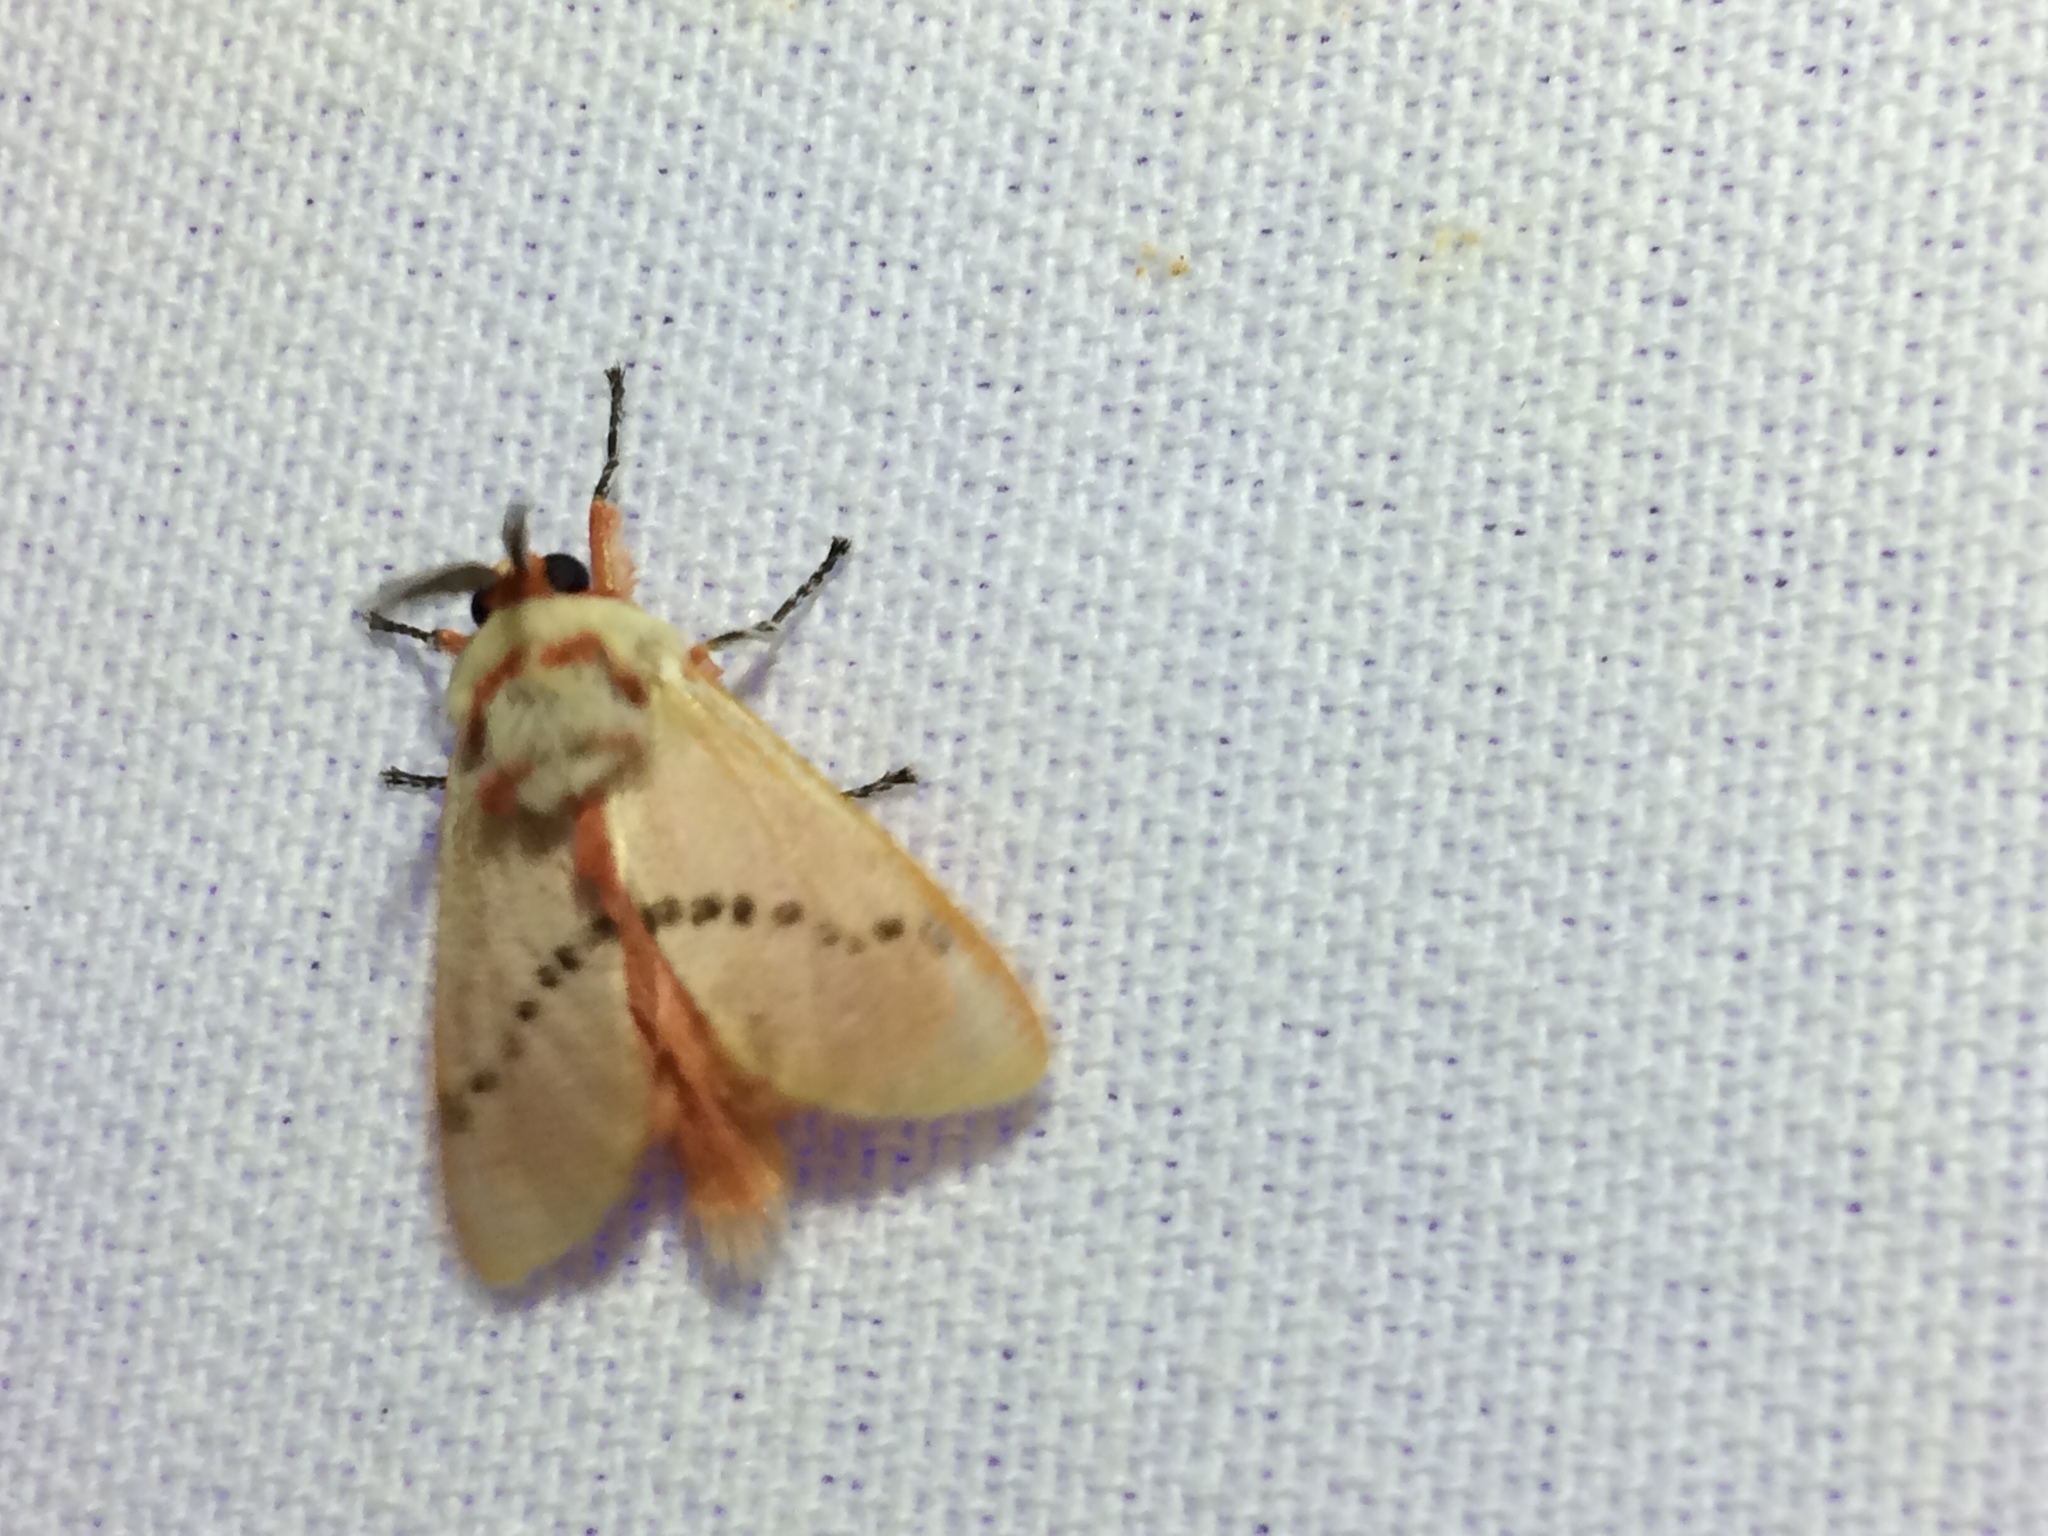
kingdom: Animalia
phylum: Arthropoda
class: Insecta
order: Lepidoptera
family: Megalopygidae
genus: Trosia
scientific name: Trosia misda
